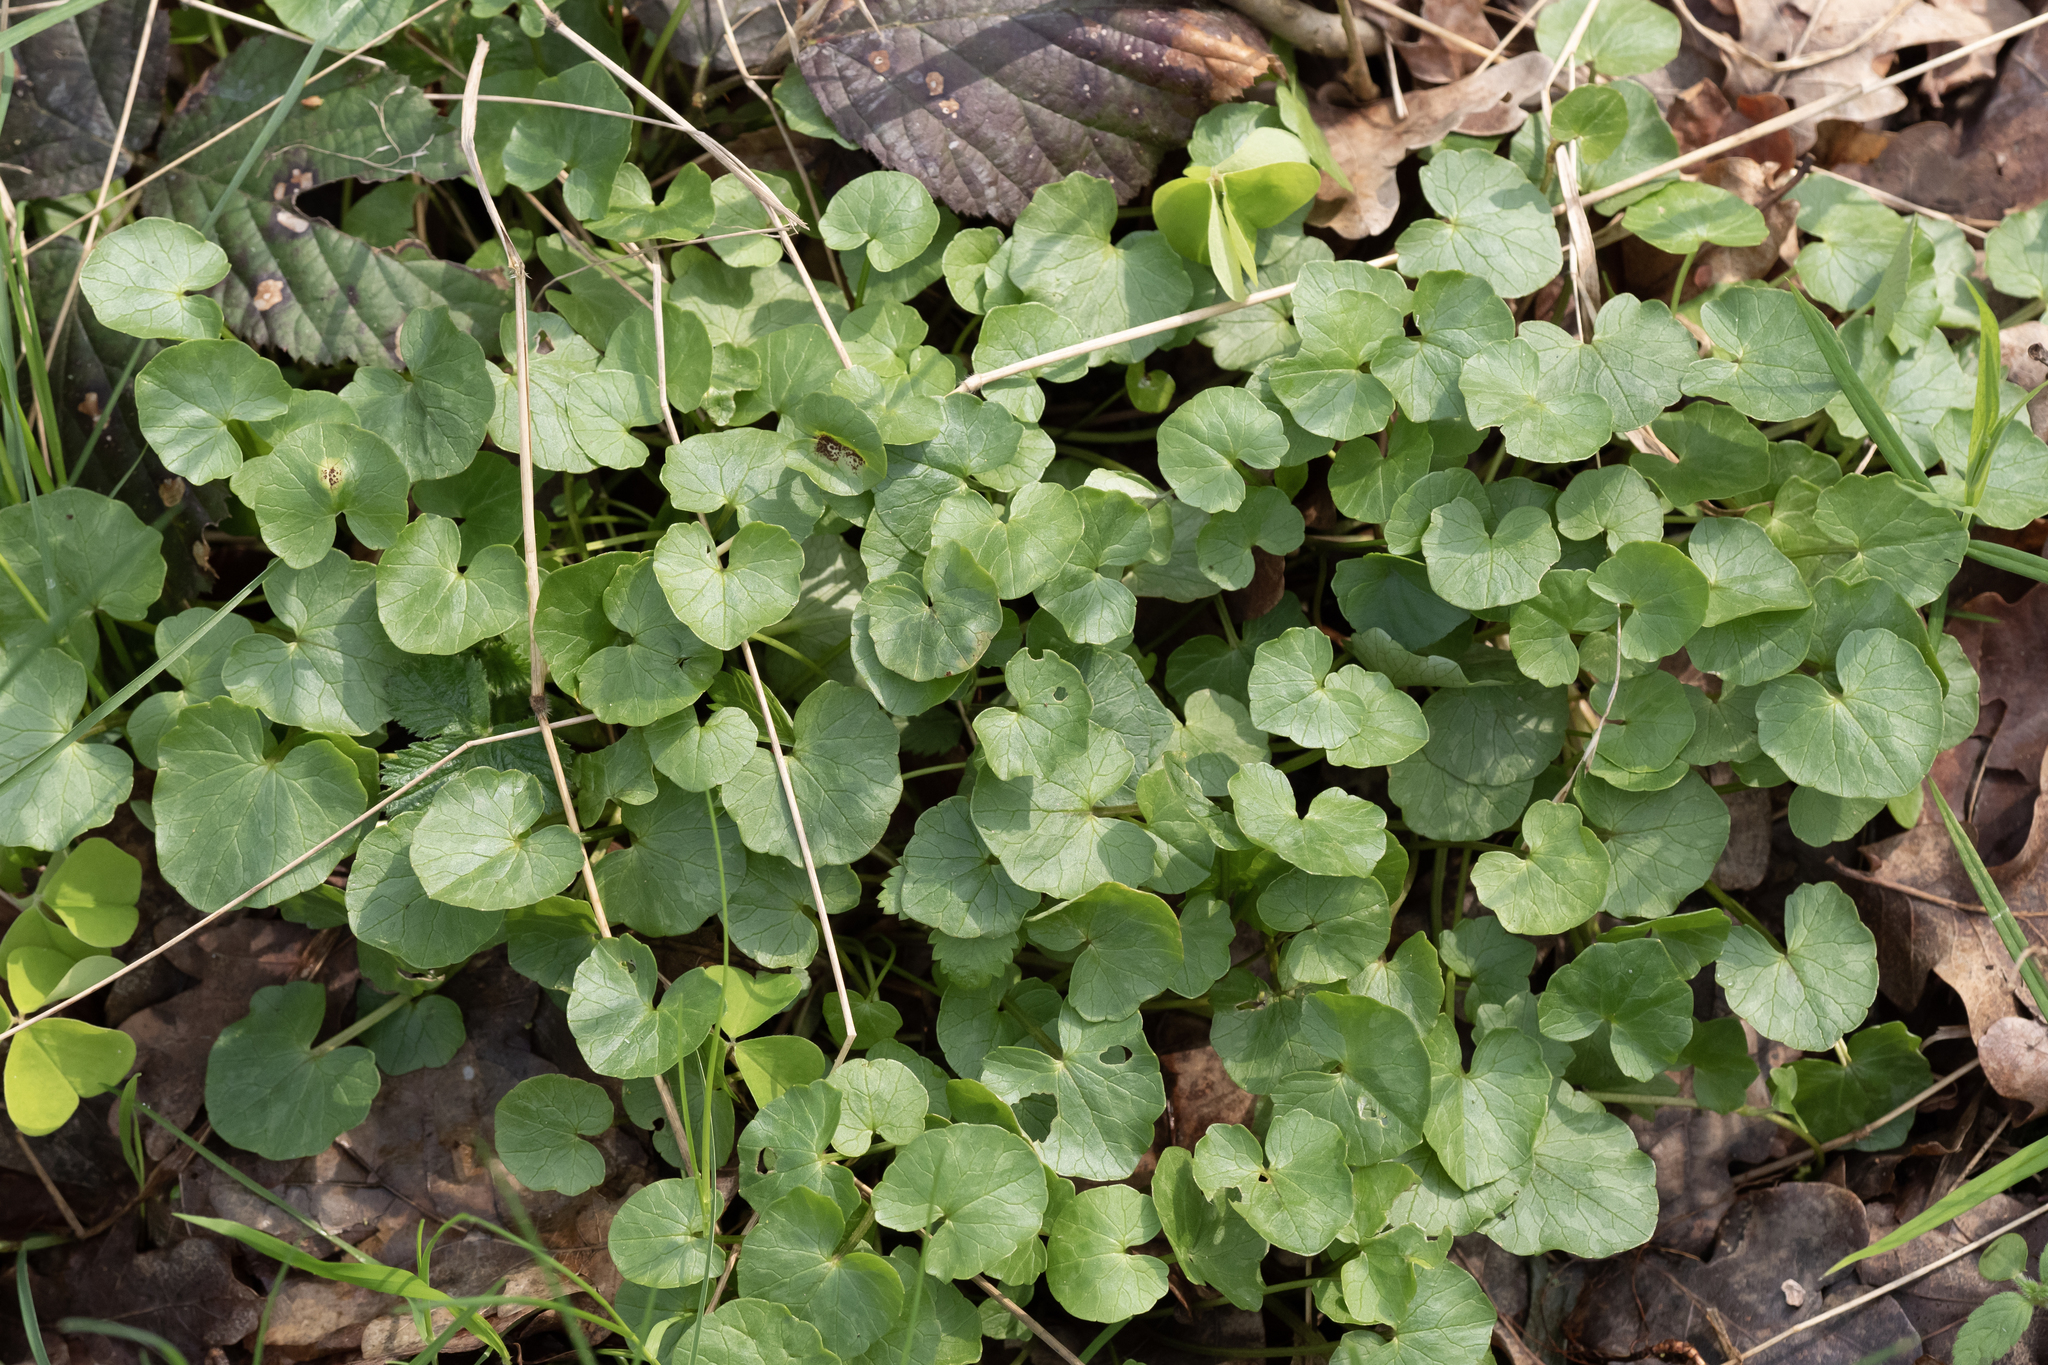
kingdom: Plantae
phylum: Tracheophyta
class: Magnoliopsida
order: Ranunculales
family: Ranunculaceae
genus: Ficaria
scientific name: Ficaria verna
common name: Lesser celandine
